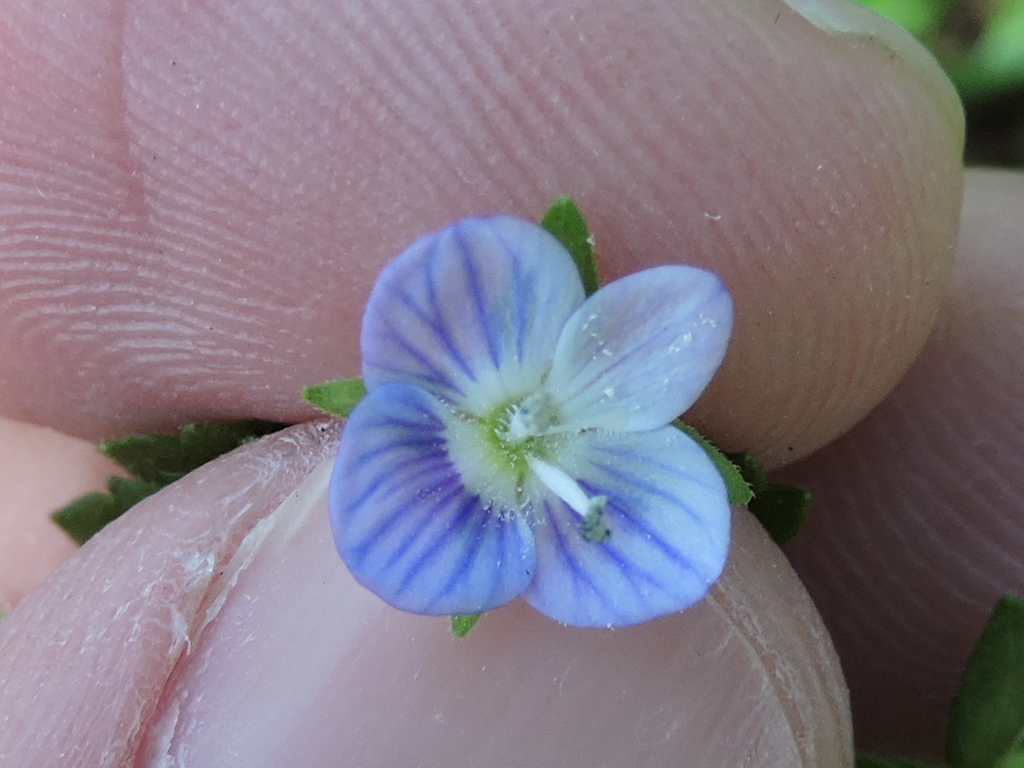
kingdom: Plantae
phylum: Tracheophyta
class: Magnoliopsida
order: Lamiales
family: Plantaginaceae
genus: Veronica
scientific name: Veronica persica
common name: Common field-speedwell
